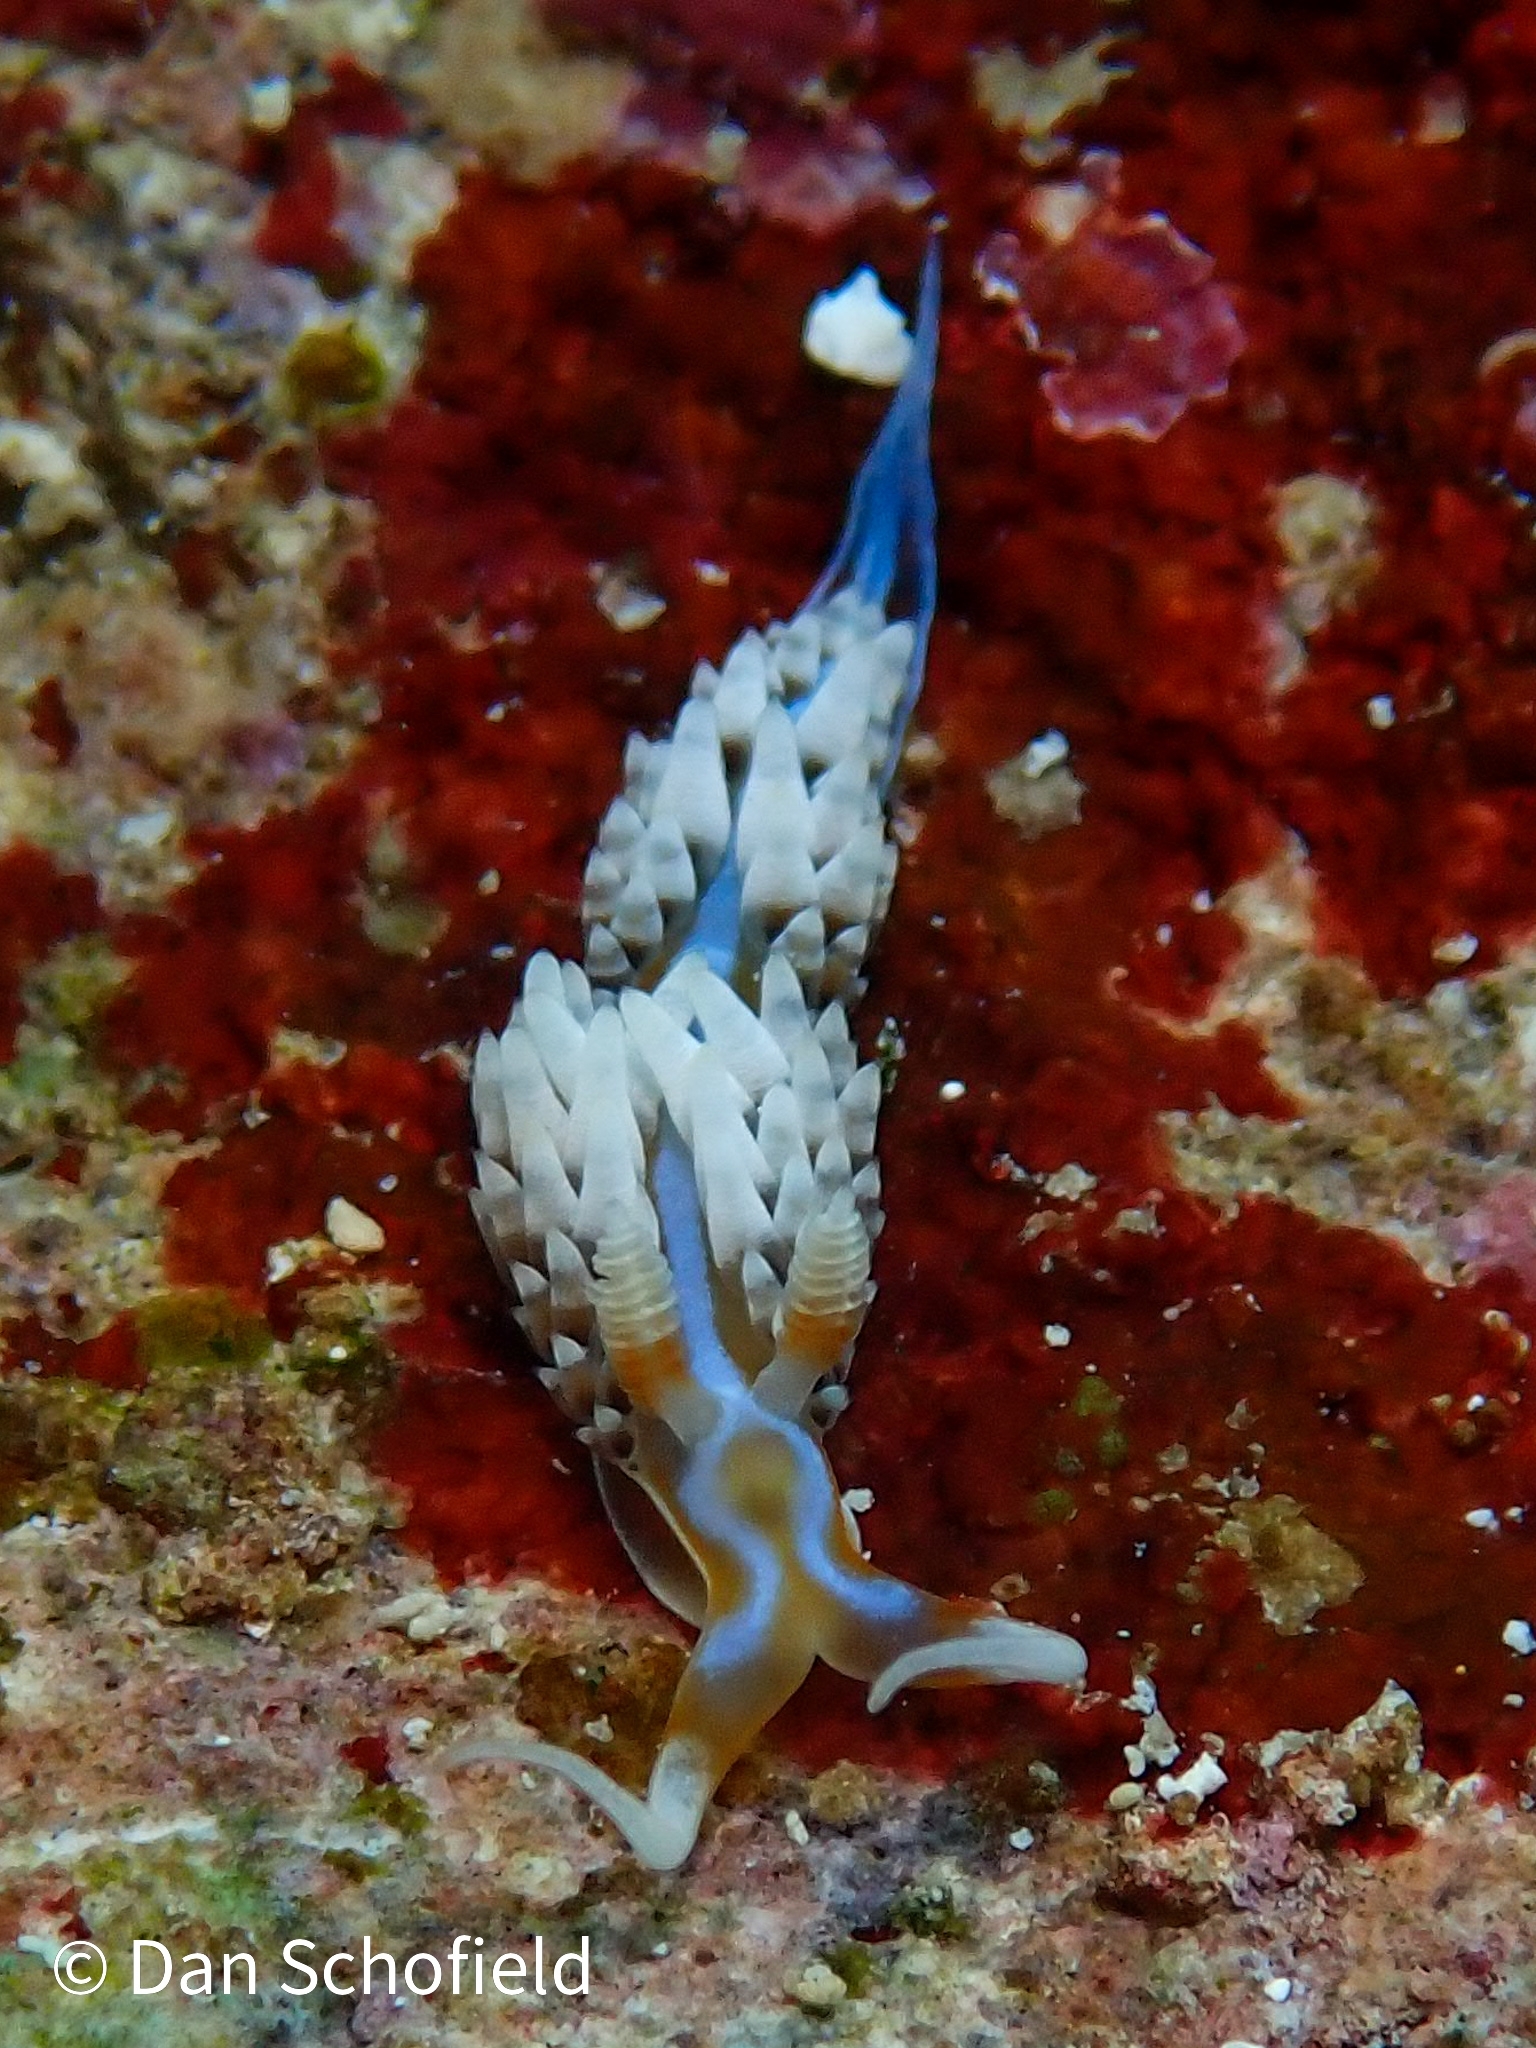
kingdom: Animalia
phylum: Mollusca
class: Gastropoda
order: Nudibranchia
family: Facelinidae
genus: Phidiana
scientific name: Phidiana lynceus
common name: Lynx nudibranch
